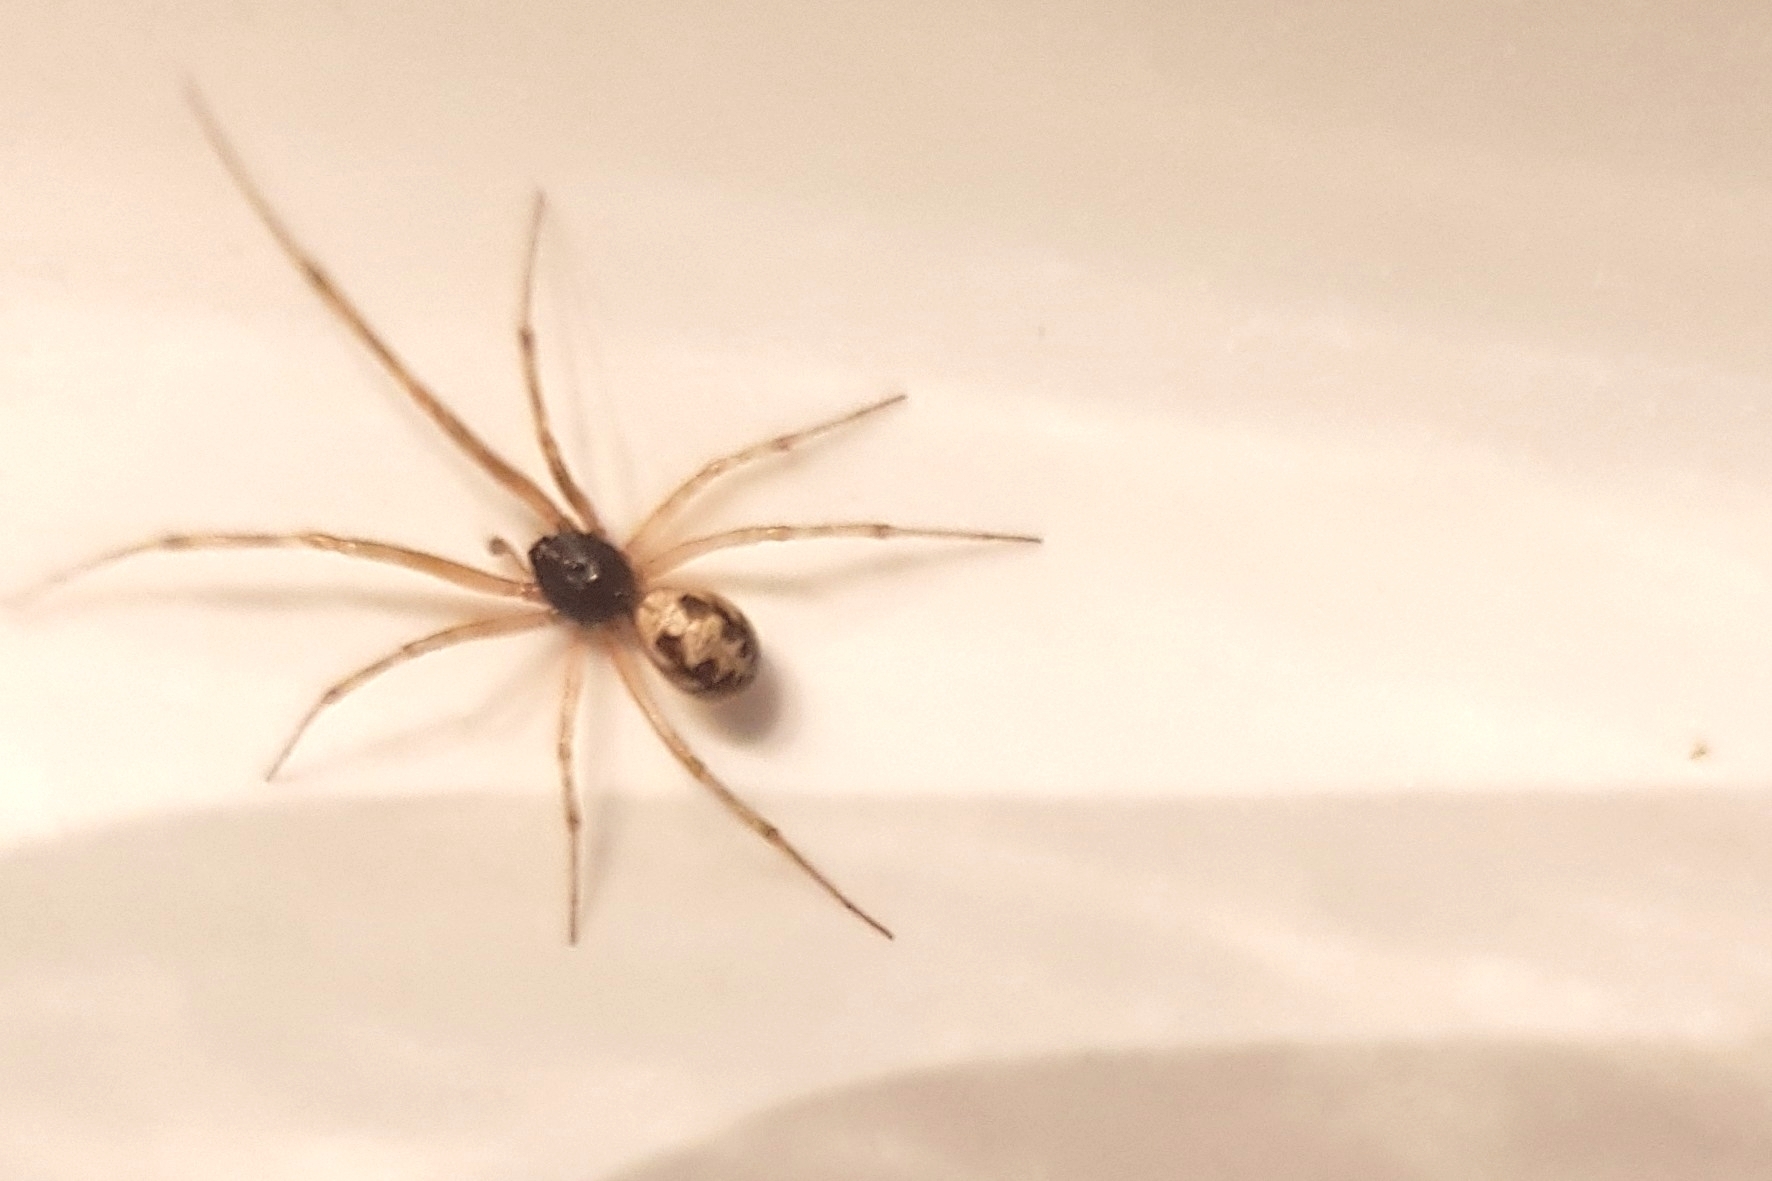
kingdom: Animalia
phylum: Arthropoda
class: Arachnida
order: Araneae
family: Theridiidae
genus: Steatoda
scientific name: Steatoda triangulosa
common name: Triangulate bud spider
